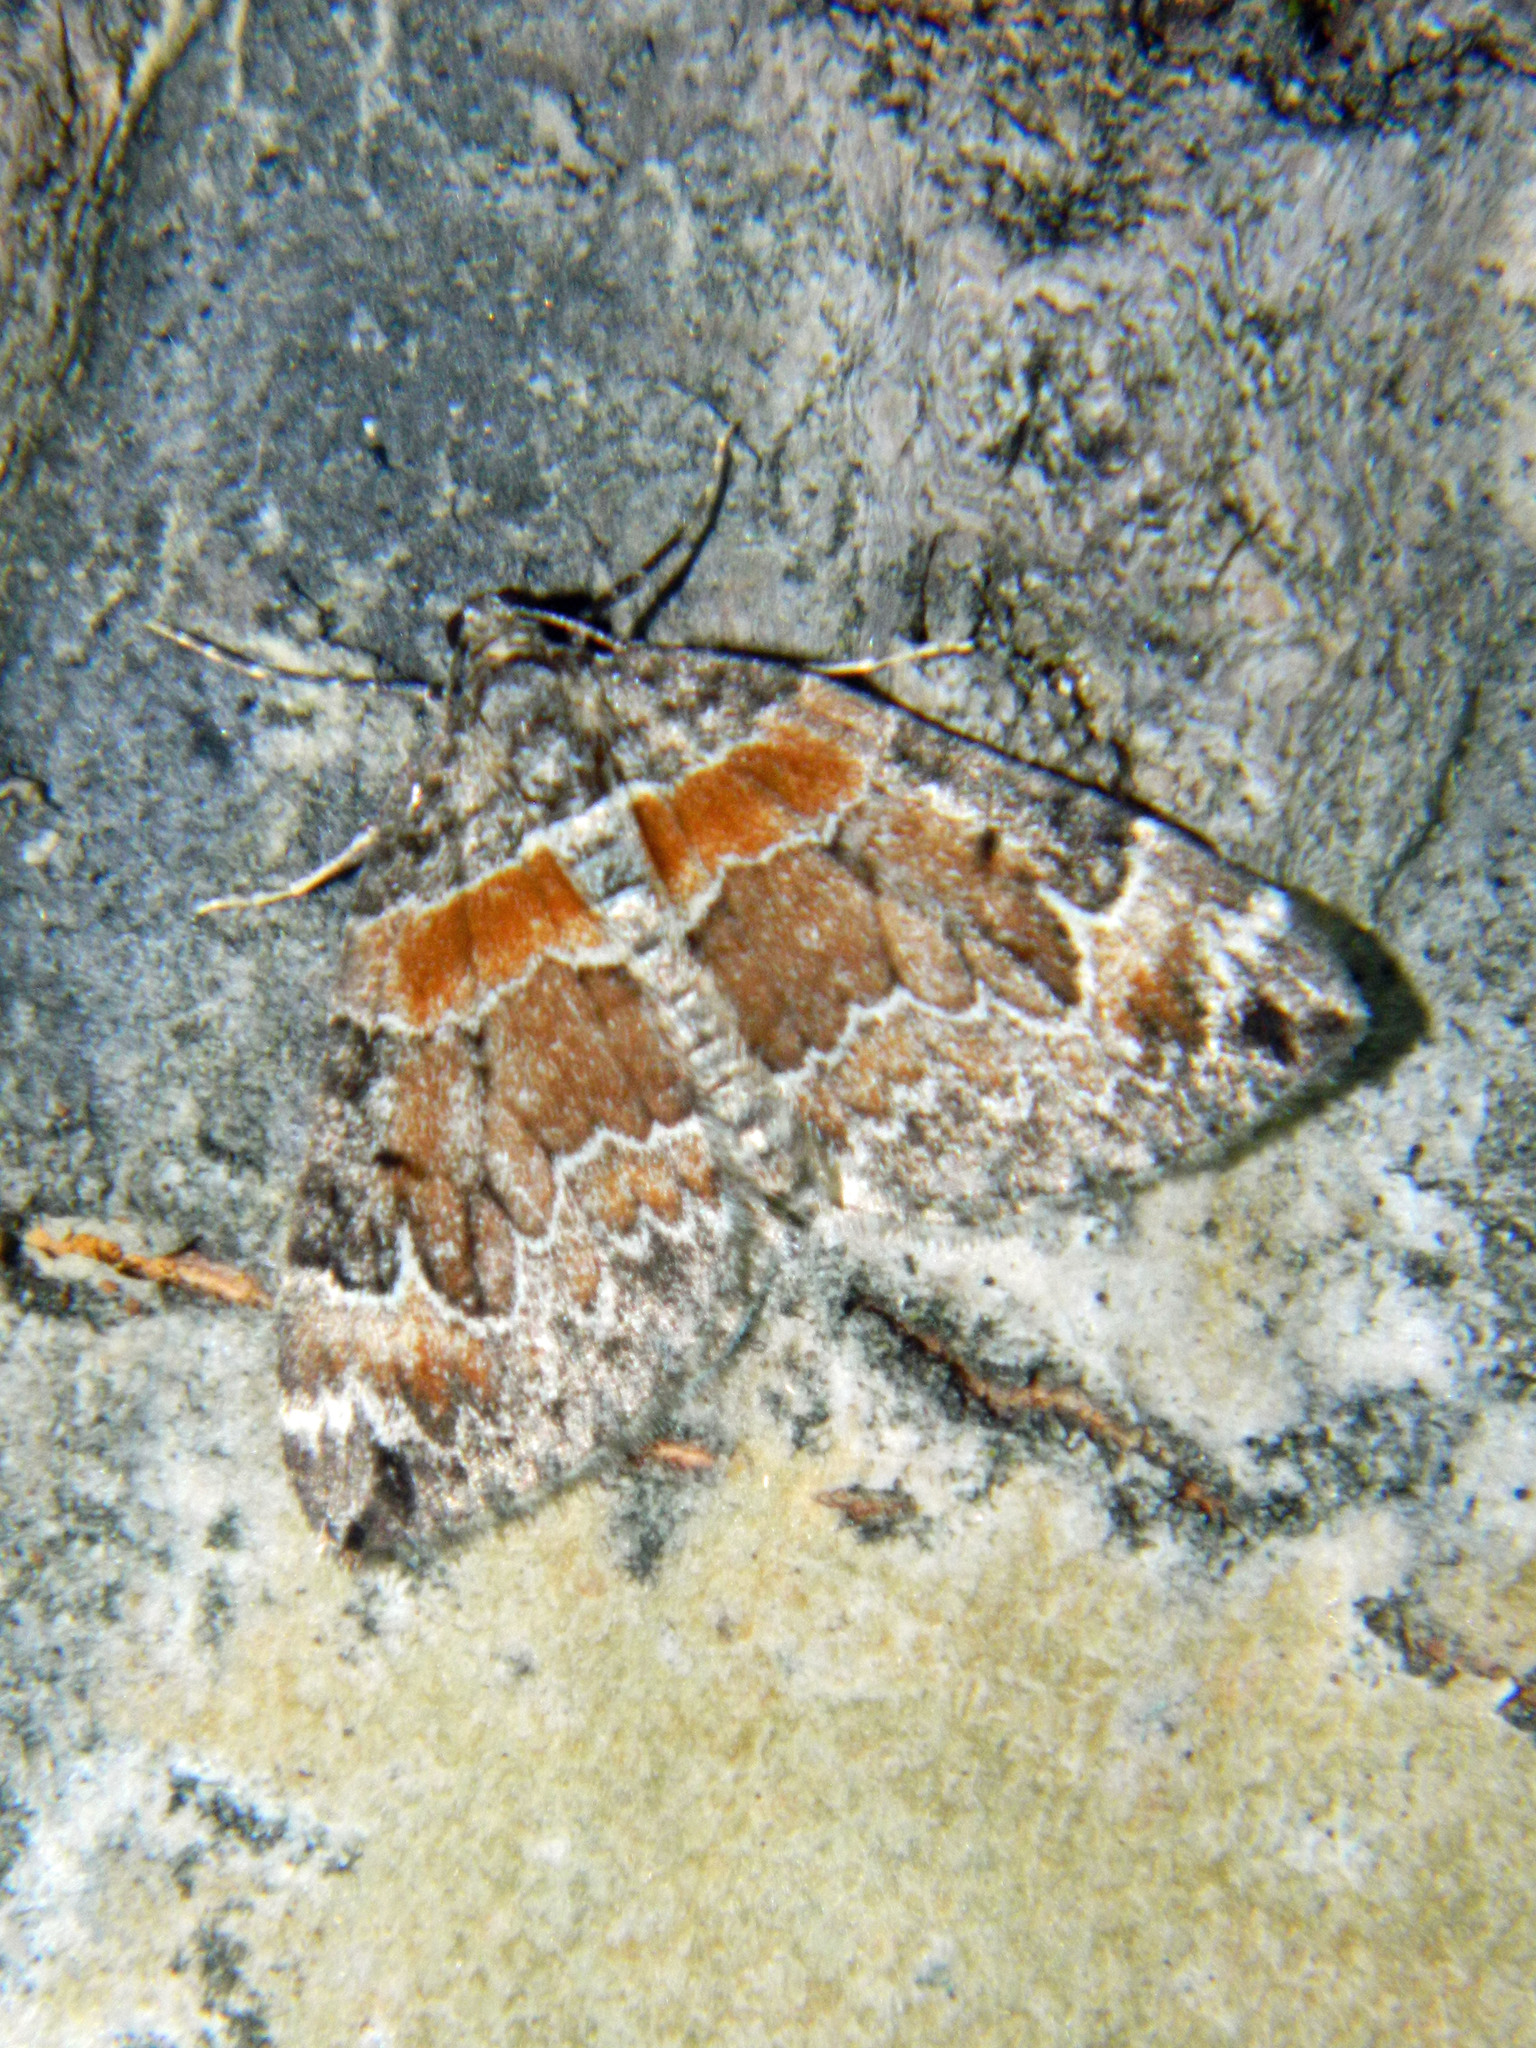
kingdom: Animalia
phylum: Arthropoda
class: Insecta
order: Lepidoptera
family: Geometridae
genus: Dysstroma
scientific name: Dysstroma hersiliata
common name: Orange-barred carpet
